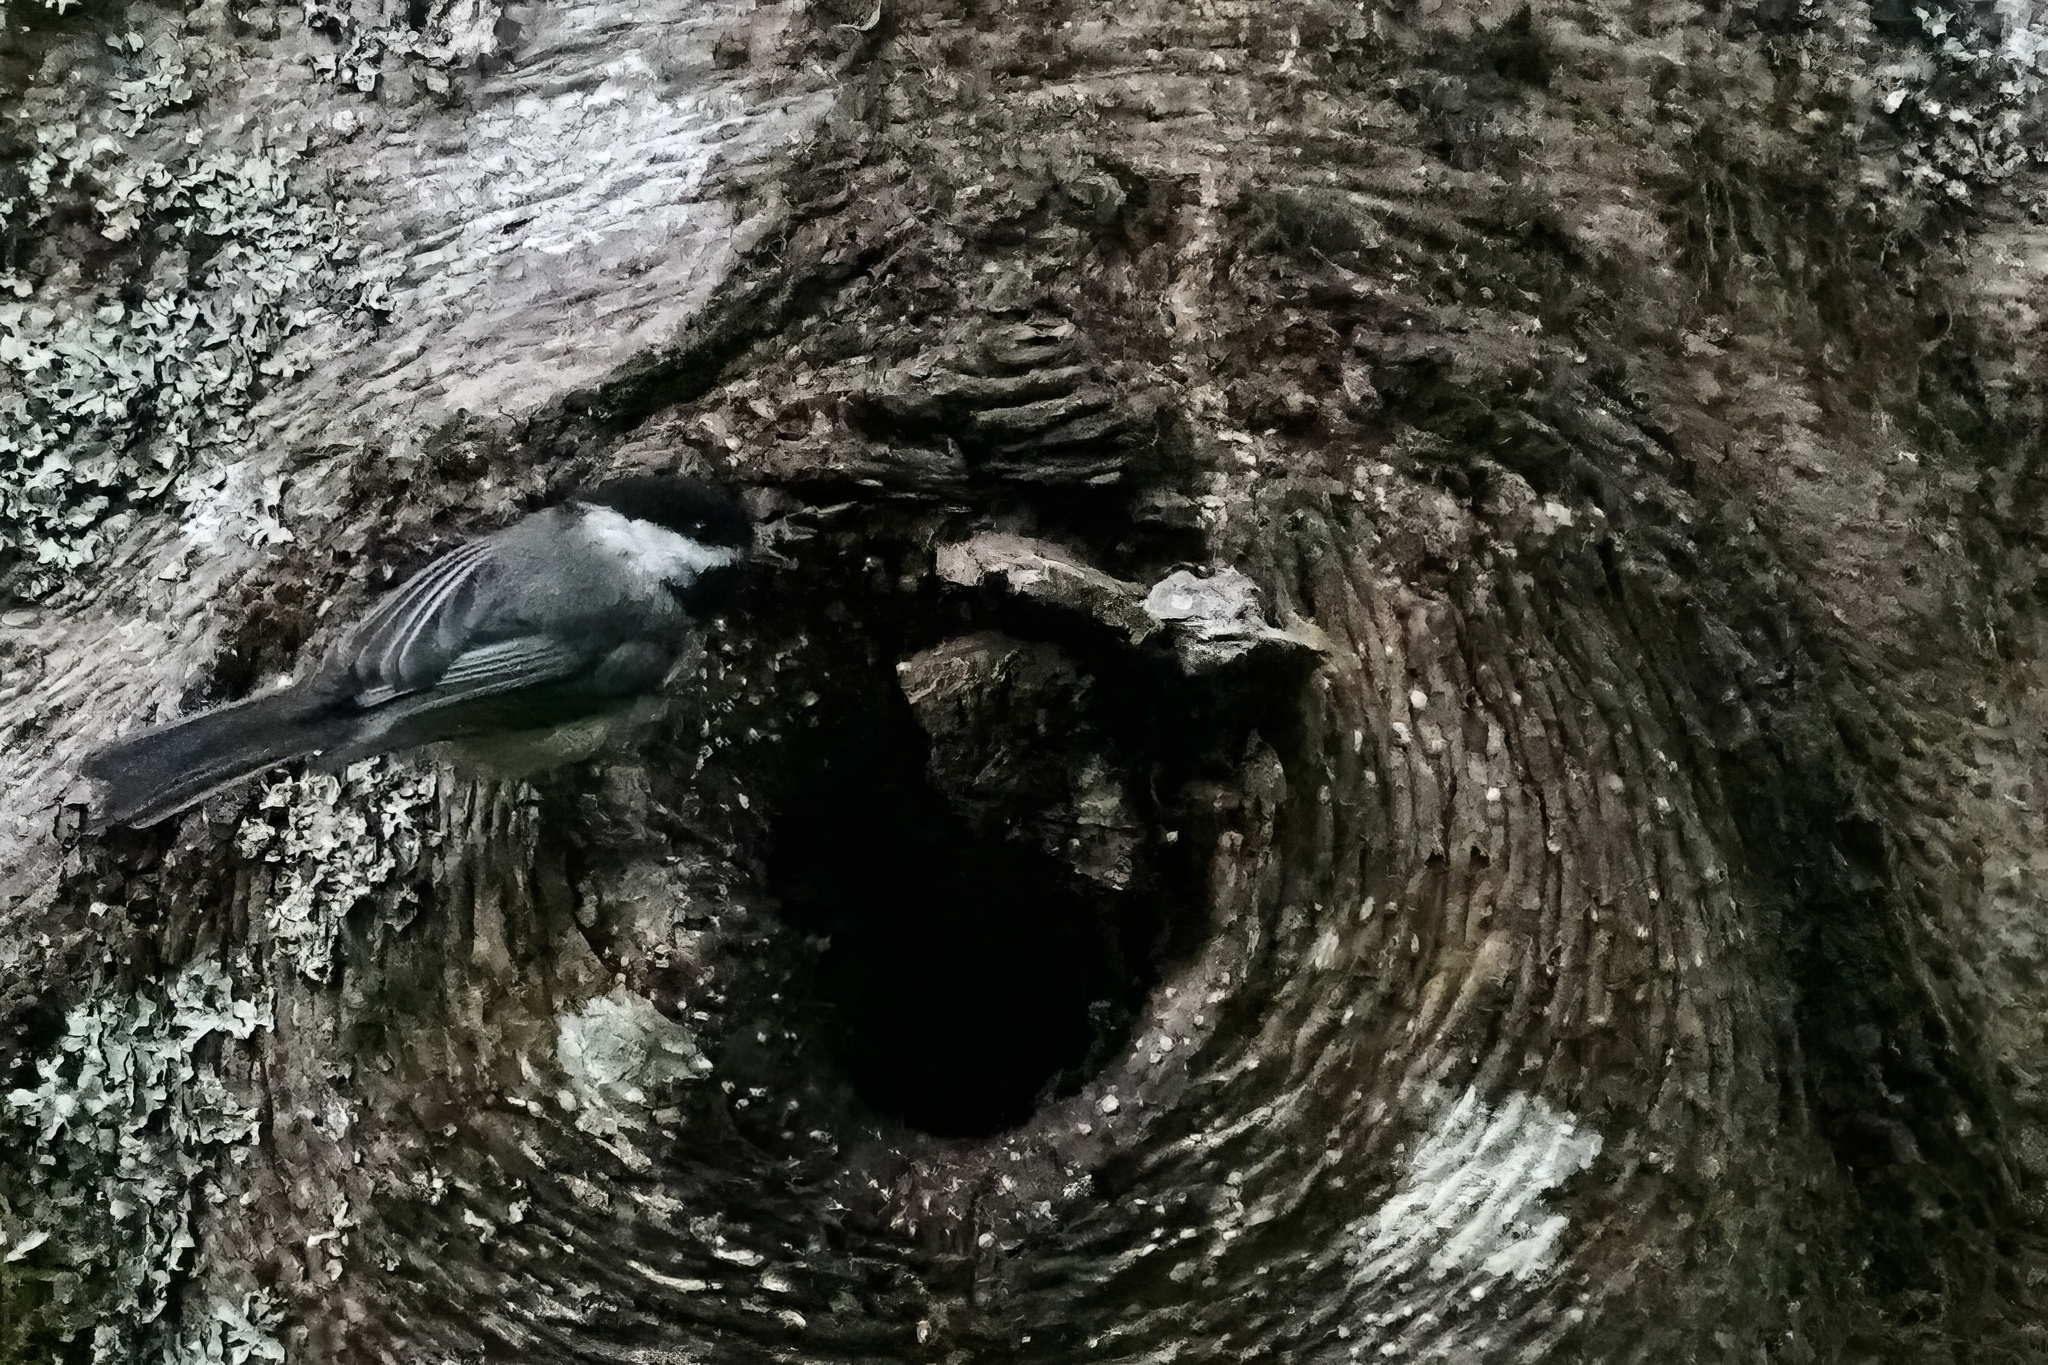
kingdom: Animalia
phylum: Chordata
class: Aves
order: Passeriformes
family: Paridae
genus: Poecile
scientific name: Poecile atricapillus
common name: Black-capped chickadee
